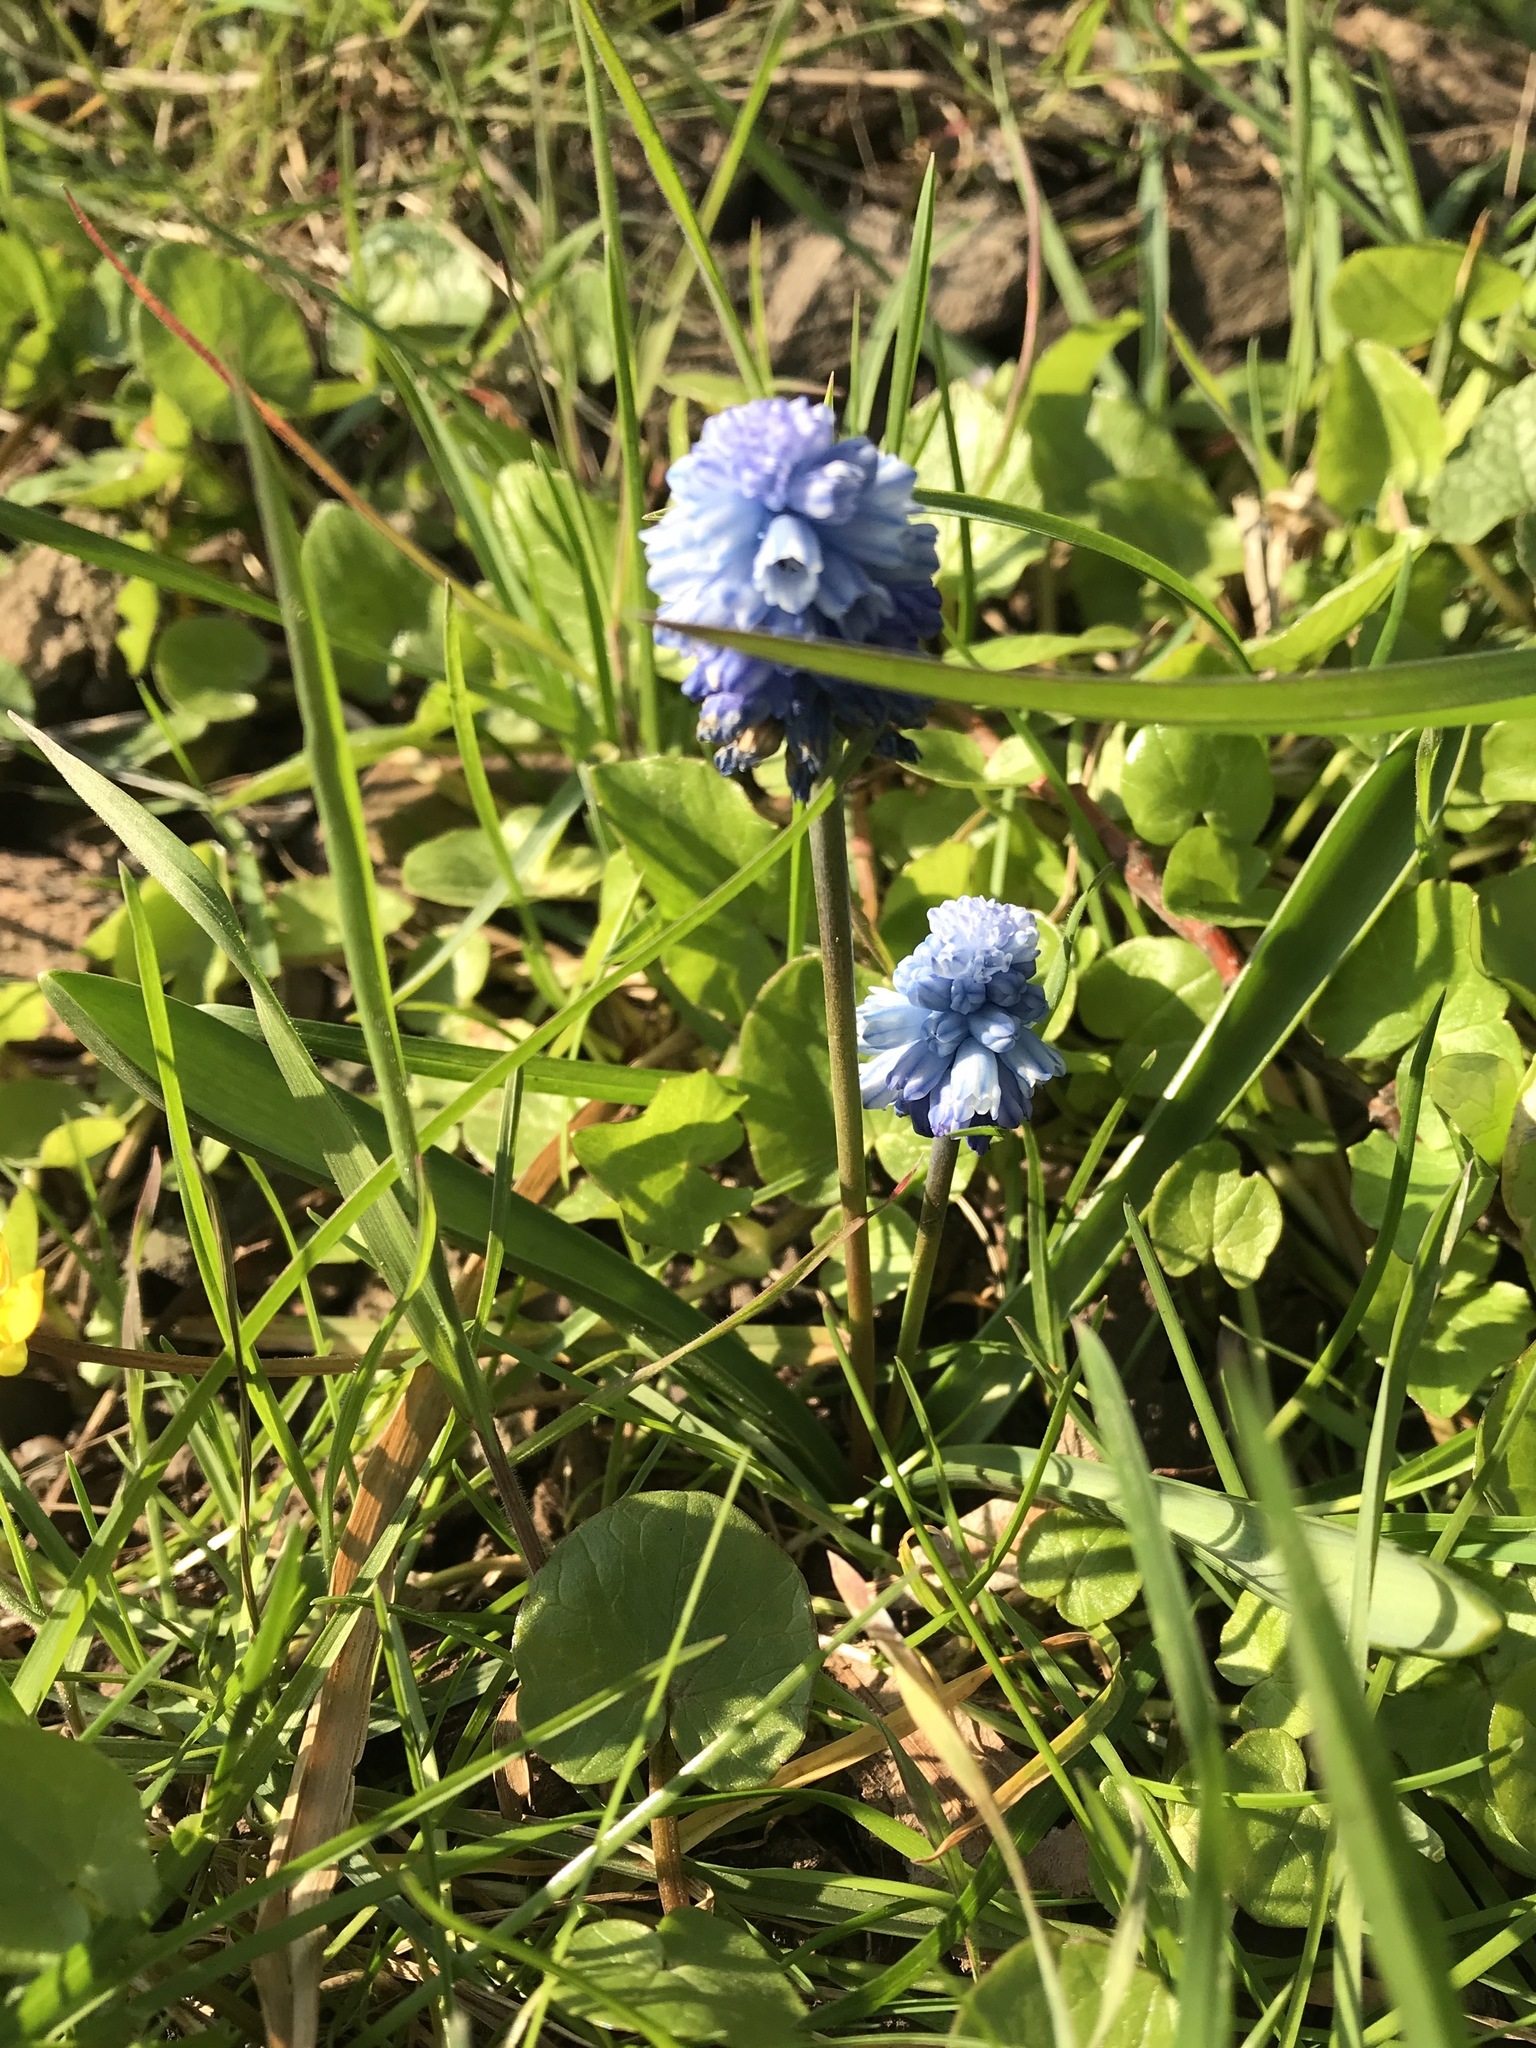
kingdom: Plantae
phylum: Tracheophyta
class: Liliopsida
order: Asparagales
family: Asparagaceae
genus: Muscari
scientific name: Muscari azureum
